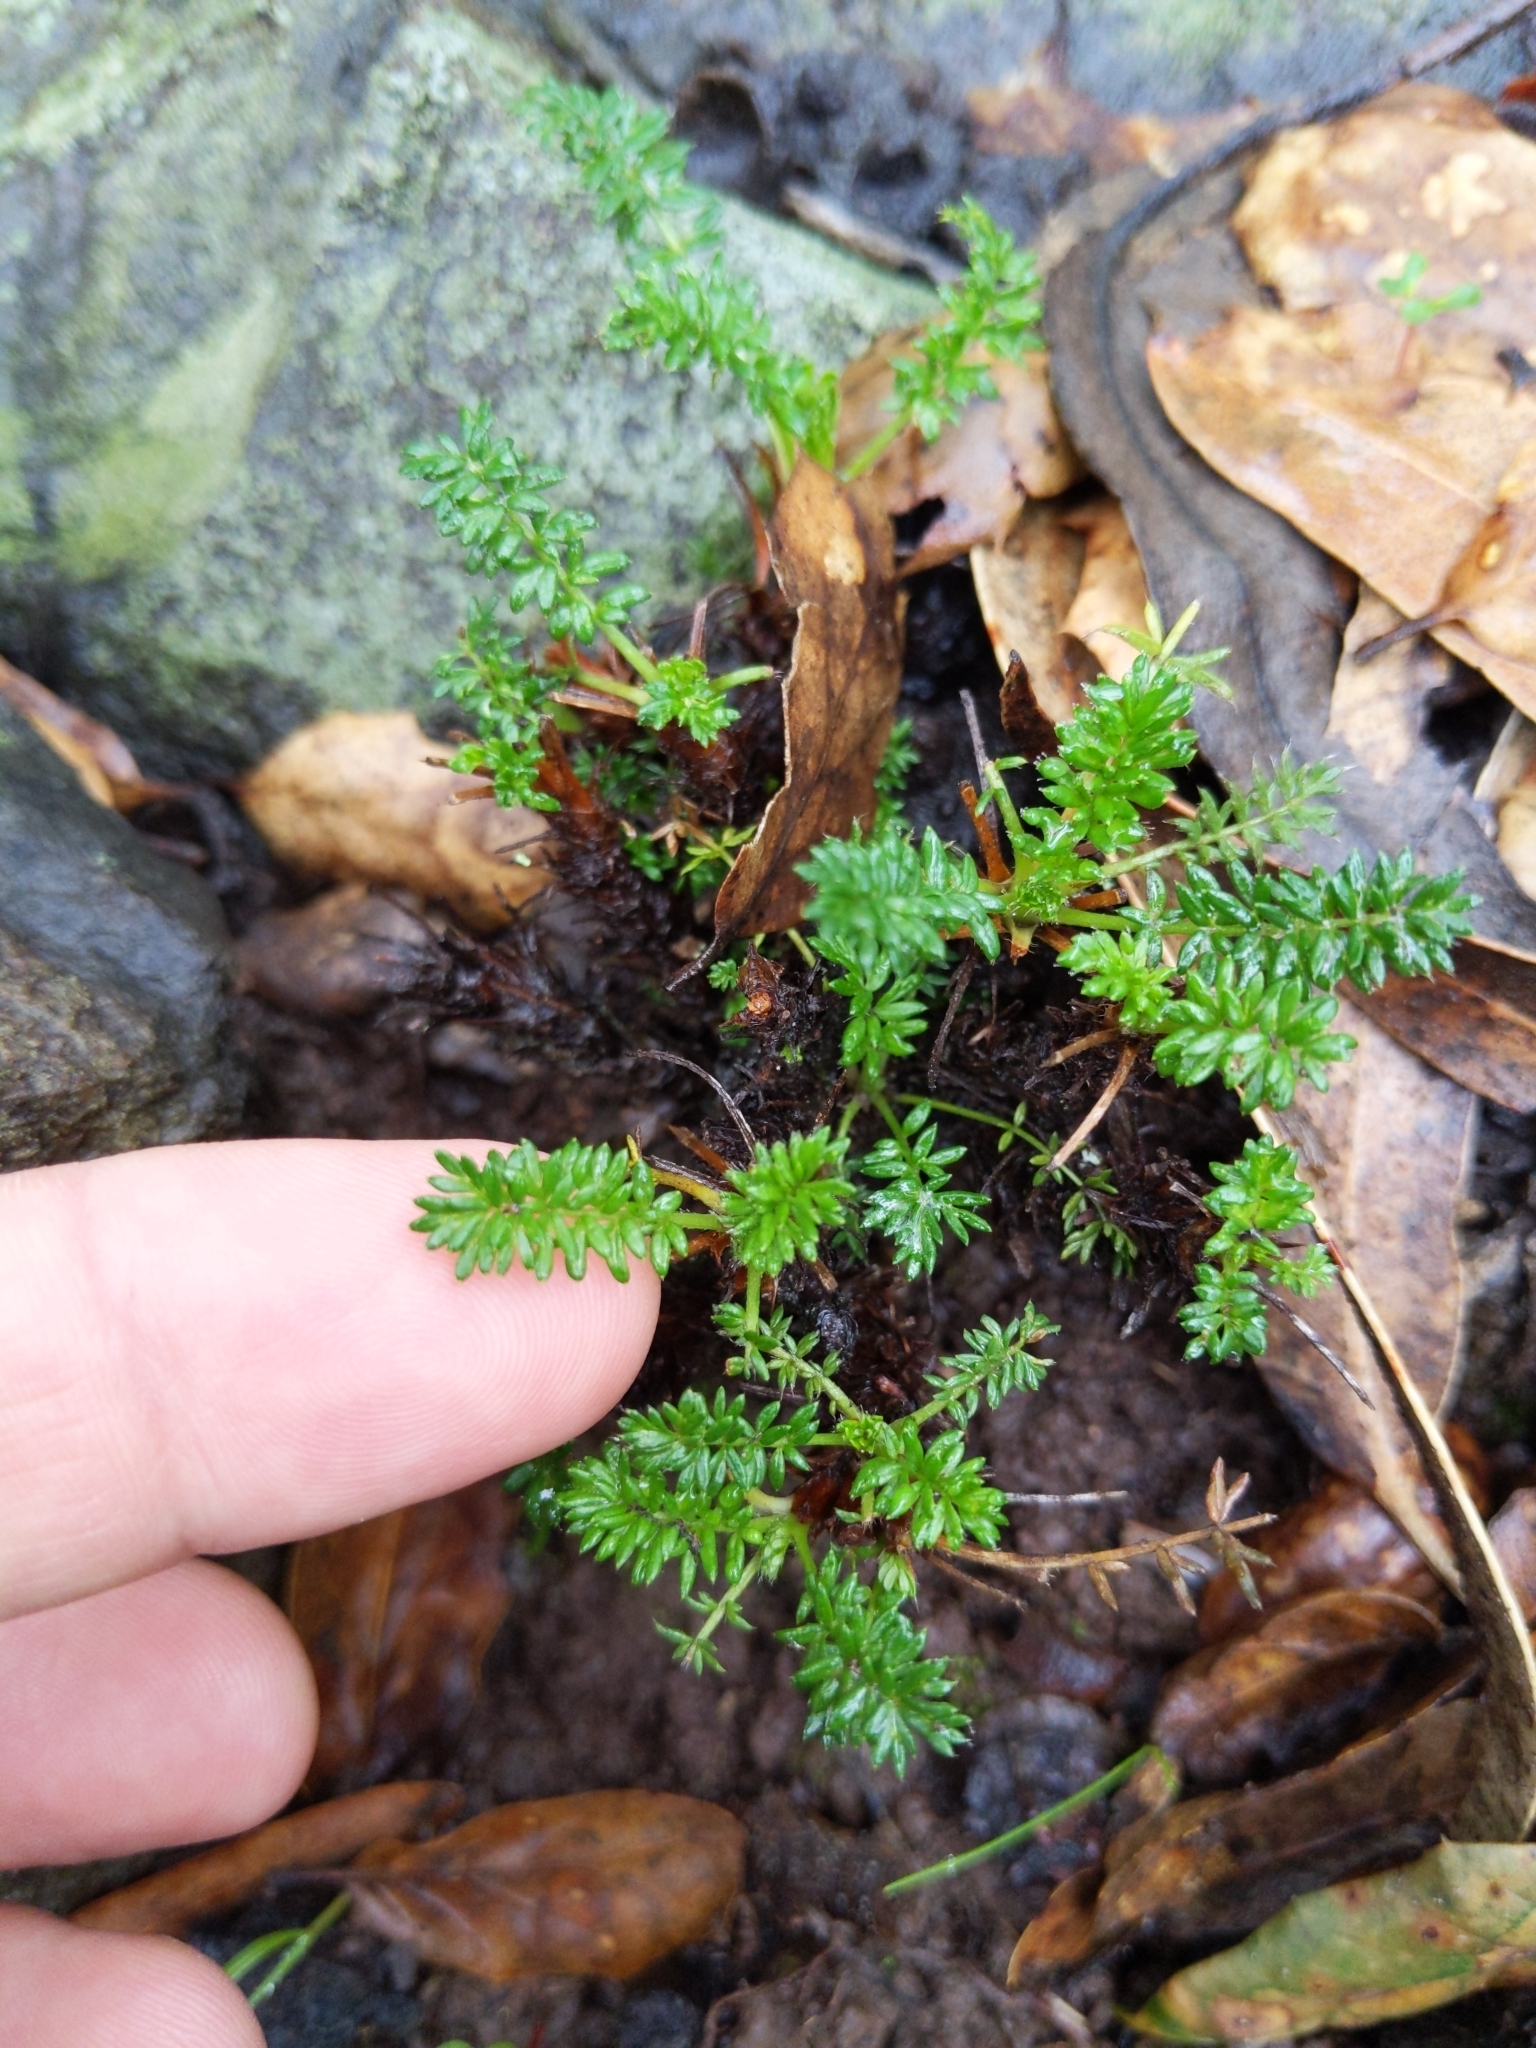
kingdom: Plantae
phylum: Tracheophyta
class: Magnoliopsida
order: Rosales
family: Rosaceae
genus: Acaena
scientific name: Acaena pinnatifida
